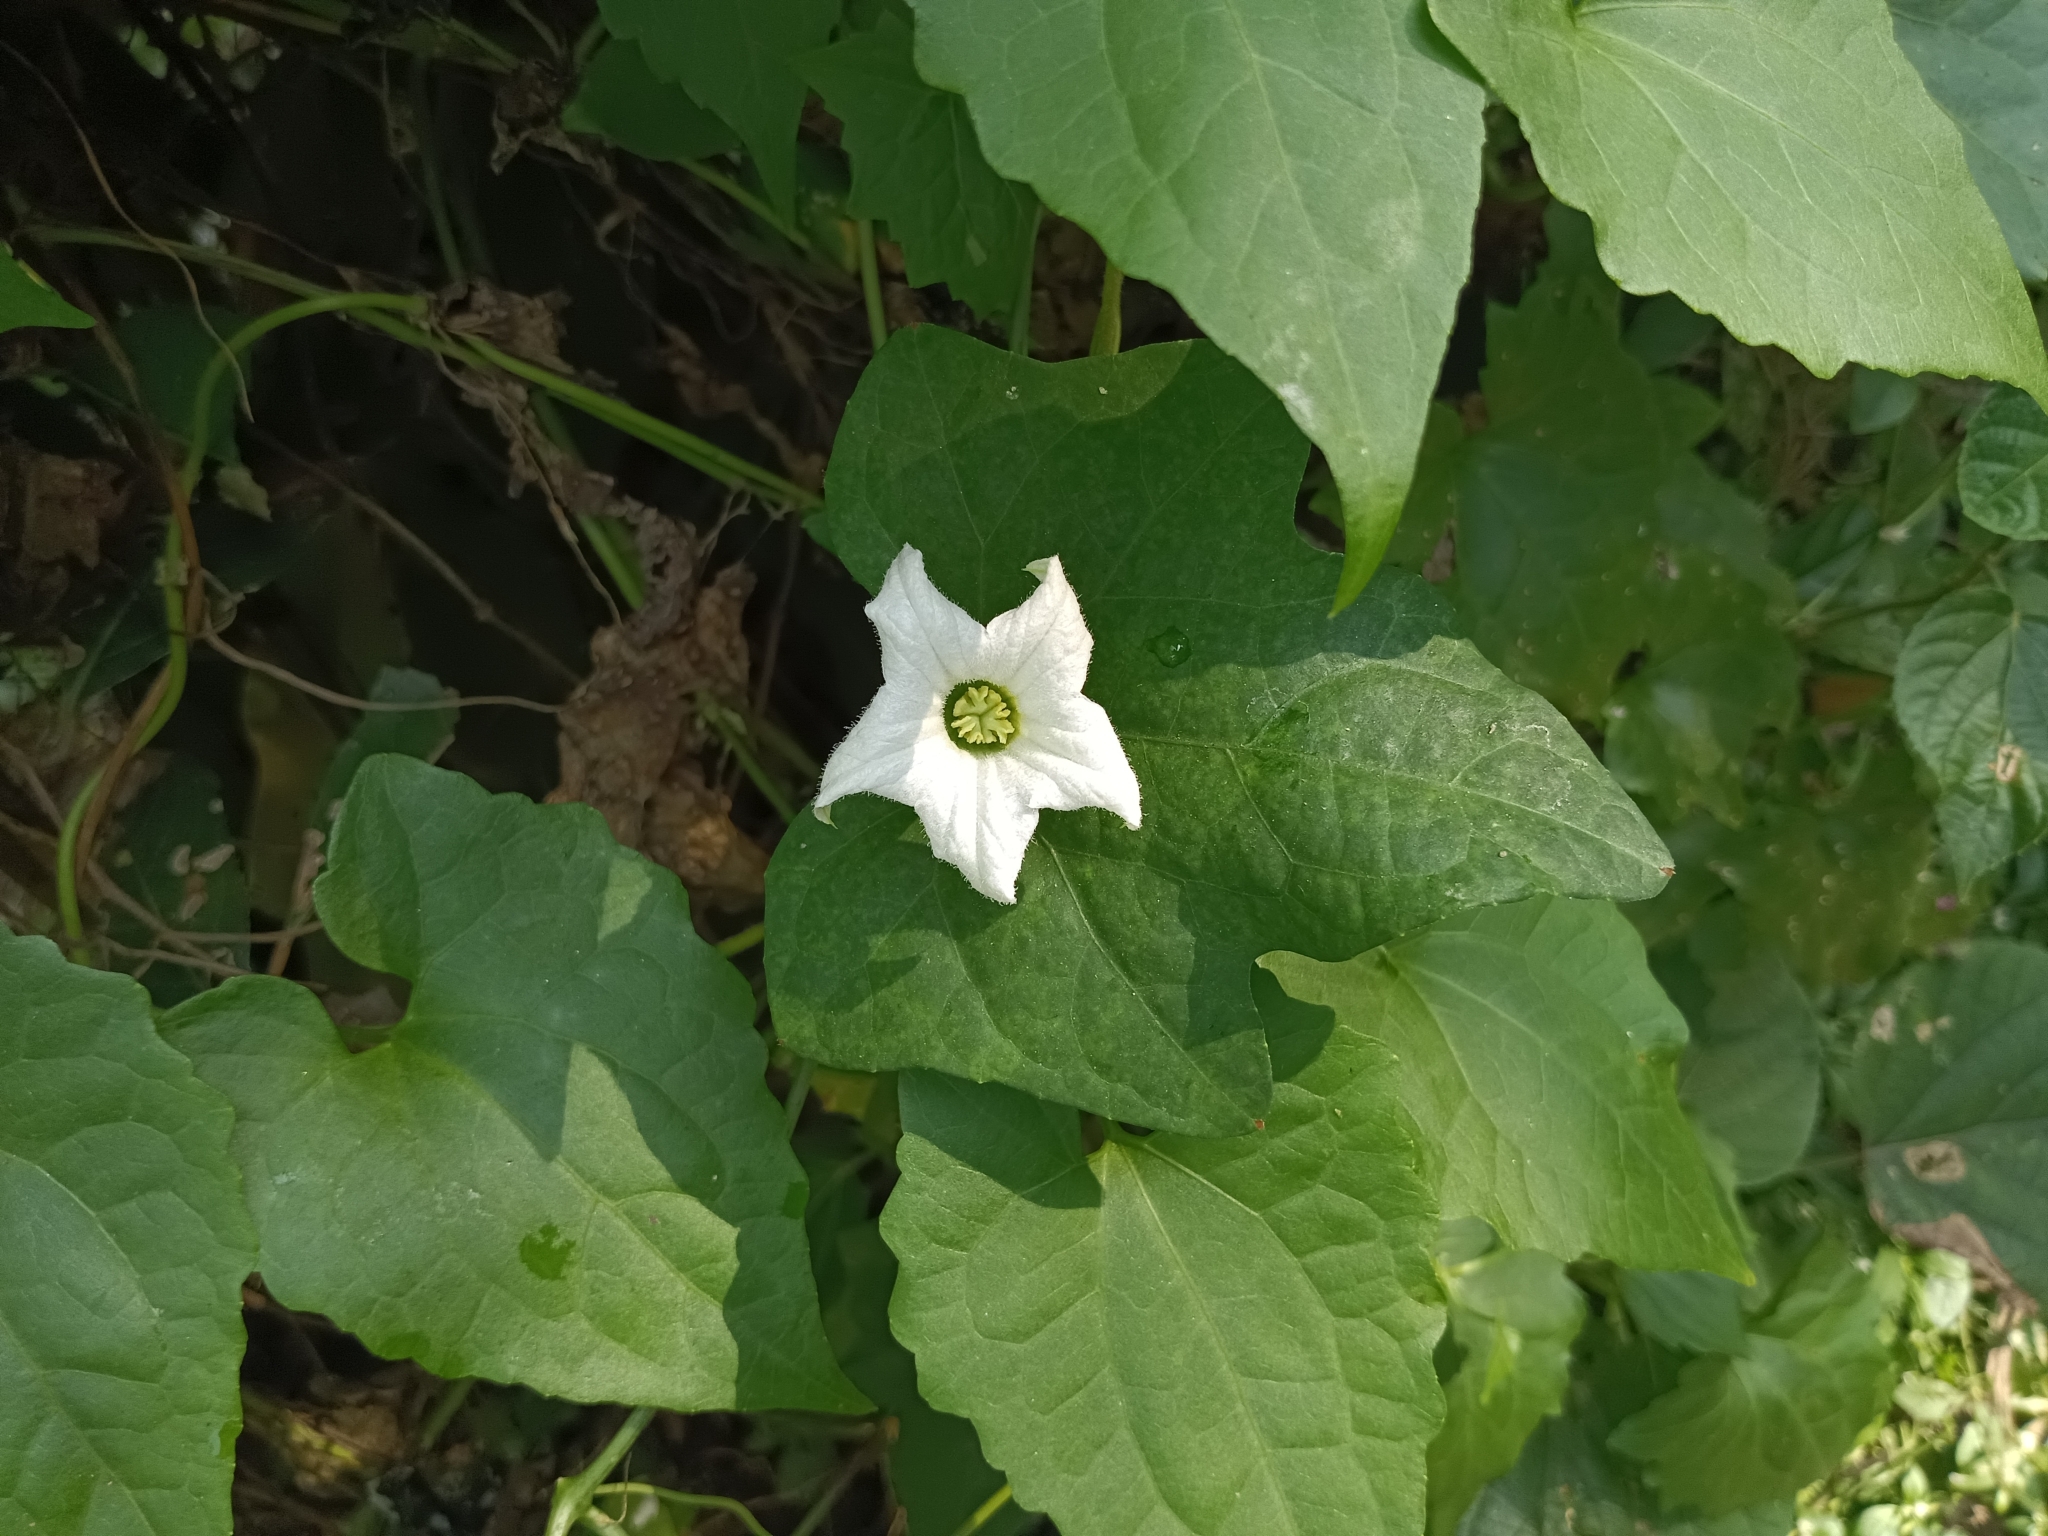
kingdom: Plantae
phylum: Tracheophyta
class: Magnoliopsida
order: Cucurbitales
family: Cucurbitaceae
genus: Coccinia
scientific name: Coccinia grandis
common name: Ivy gourd
